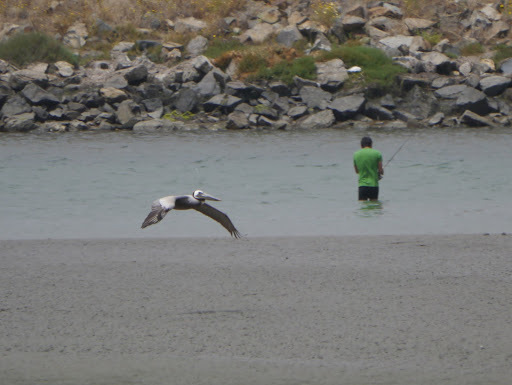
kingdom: Animalia
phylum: Chordata
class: Aves
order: Pelecaniformes
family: Pelecanidae
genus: Pelecanus
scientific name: Pelecanus occidentalis
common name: Brown pelican
